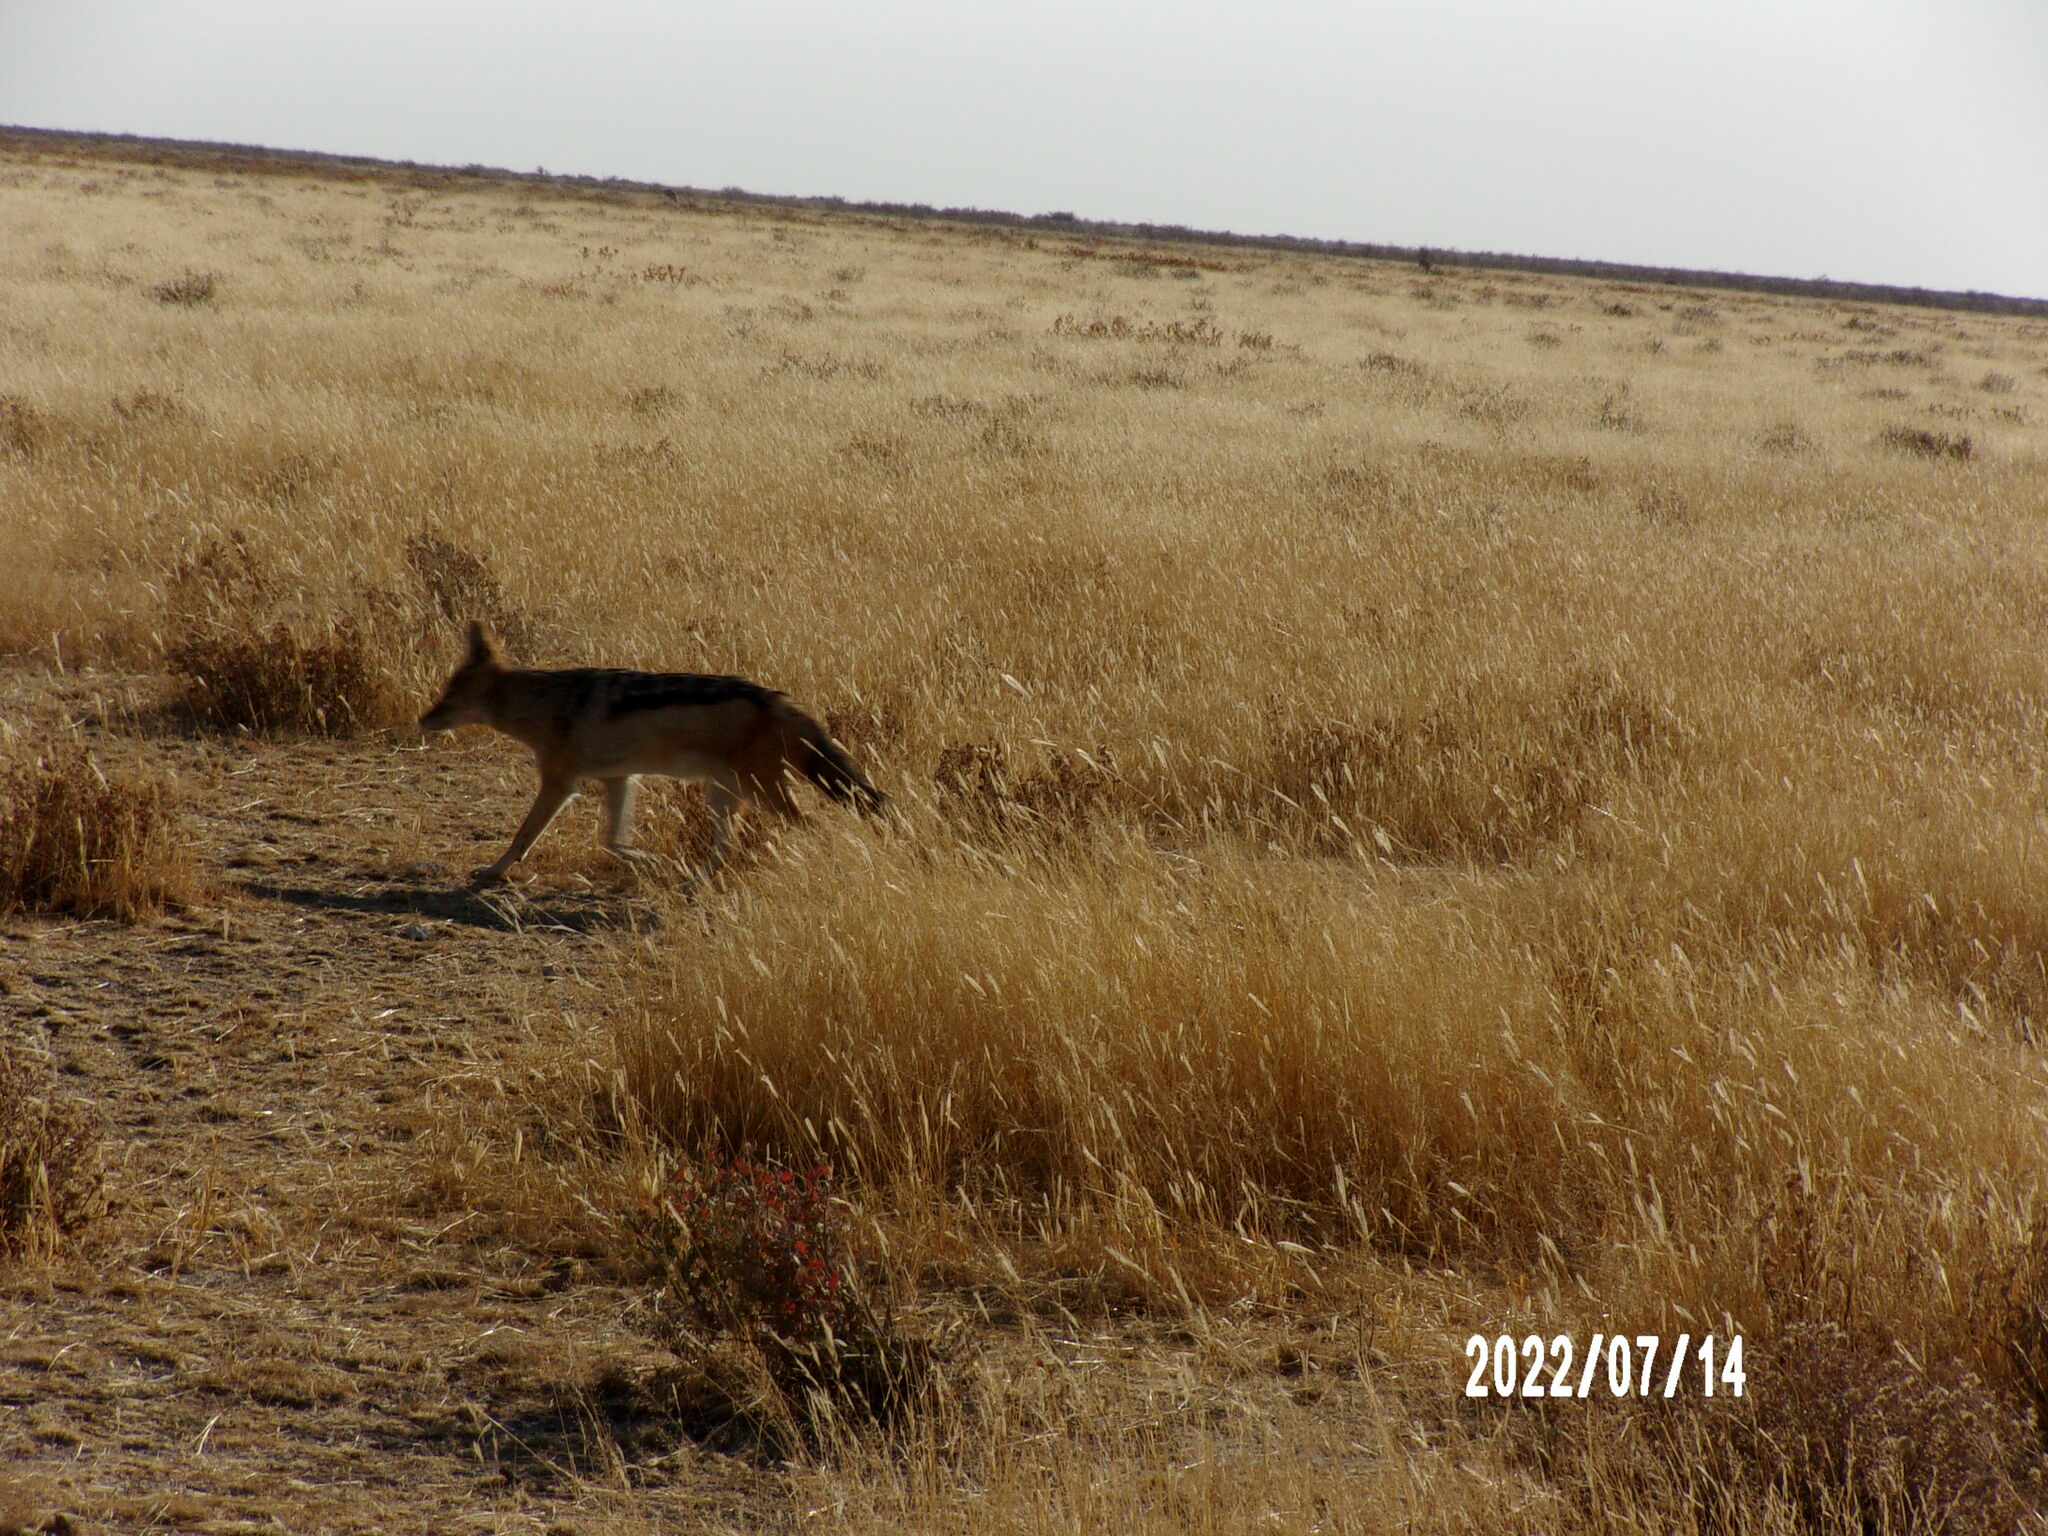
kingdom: Animalia
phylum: Chordata
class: Mammalia
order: Carnivora
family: Canidae
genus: Lupulella
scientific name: Lupulella
